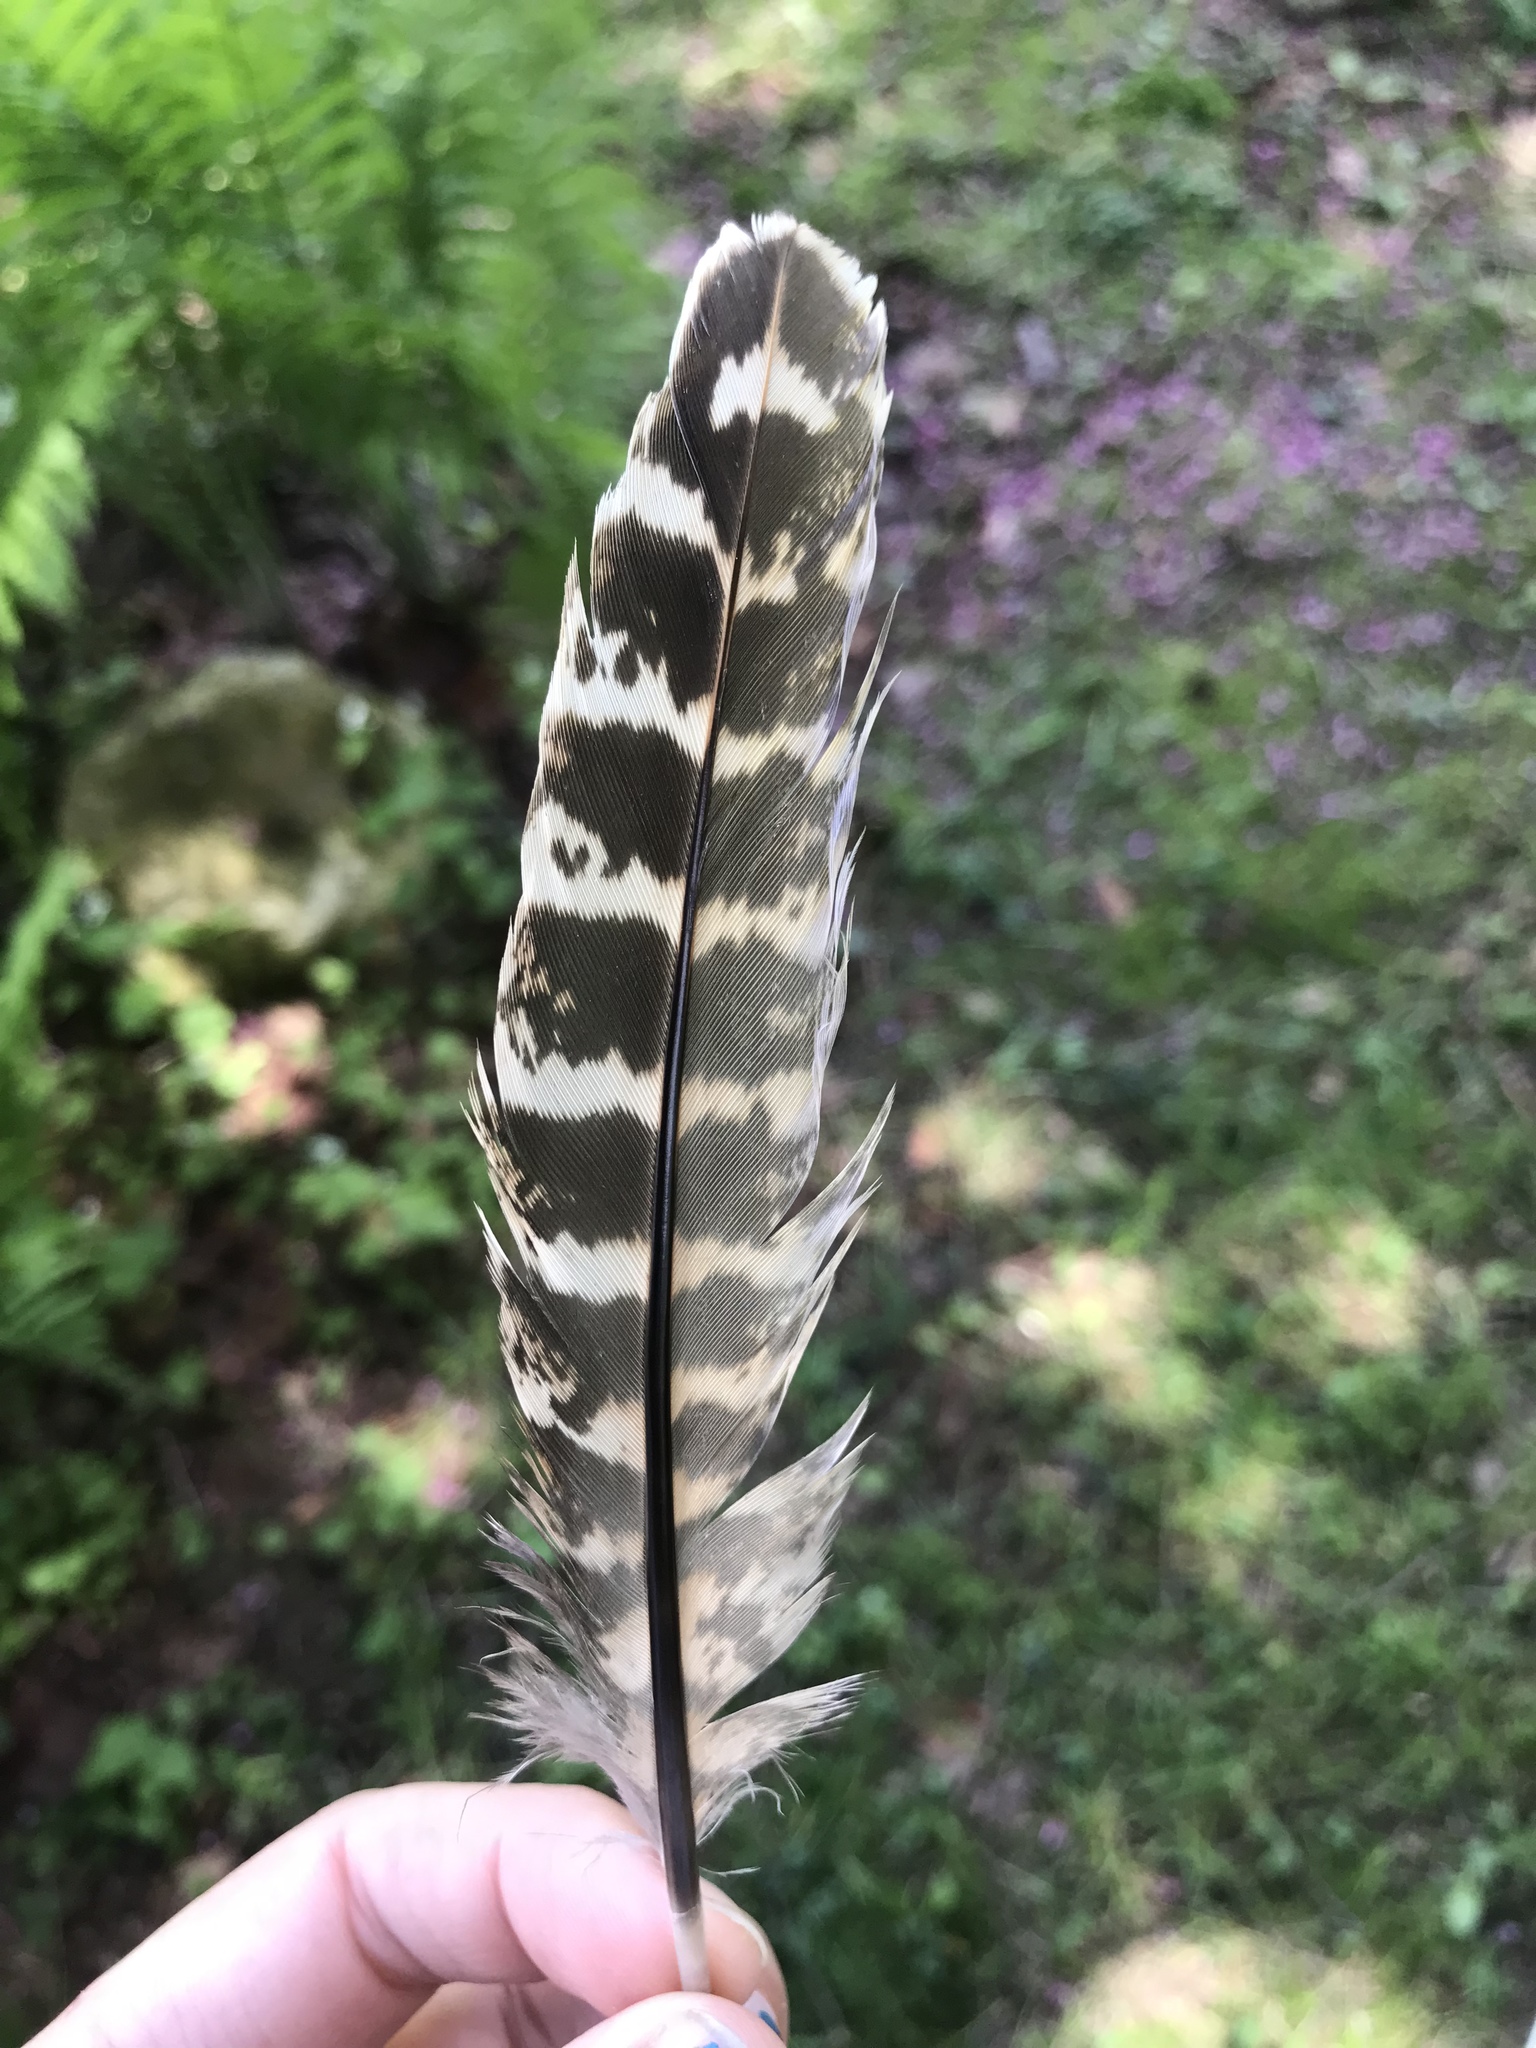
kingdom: Animalia
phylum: Chordata
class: Aves
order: Galliformes
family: Phasianidae
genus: Phasianus
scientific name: Phasianus colchicus
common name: Common pheasant
